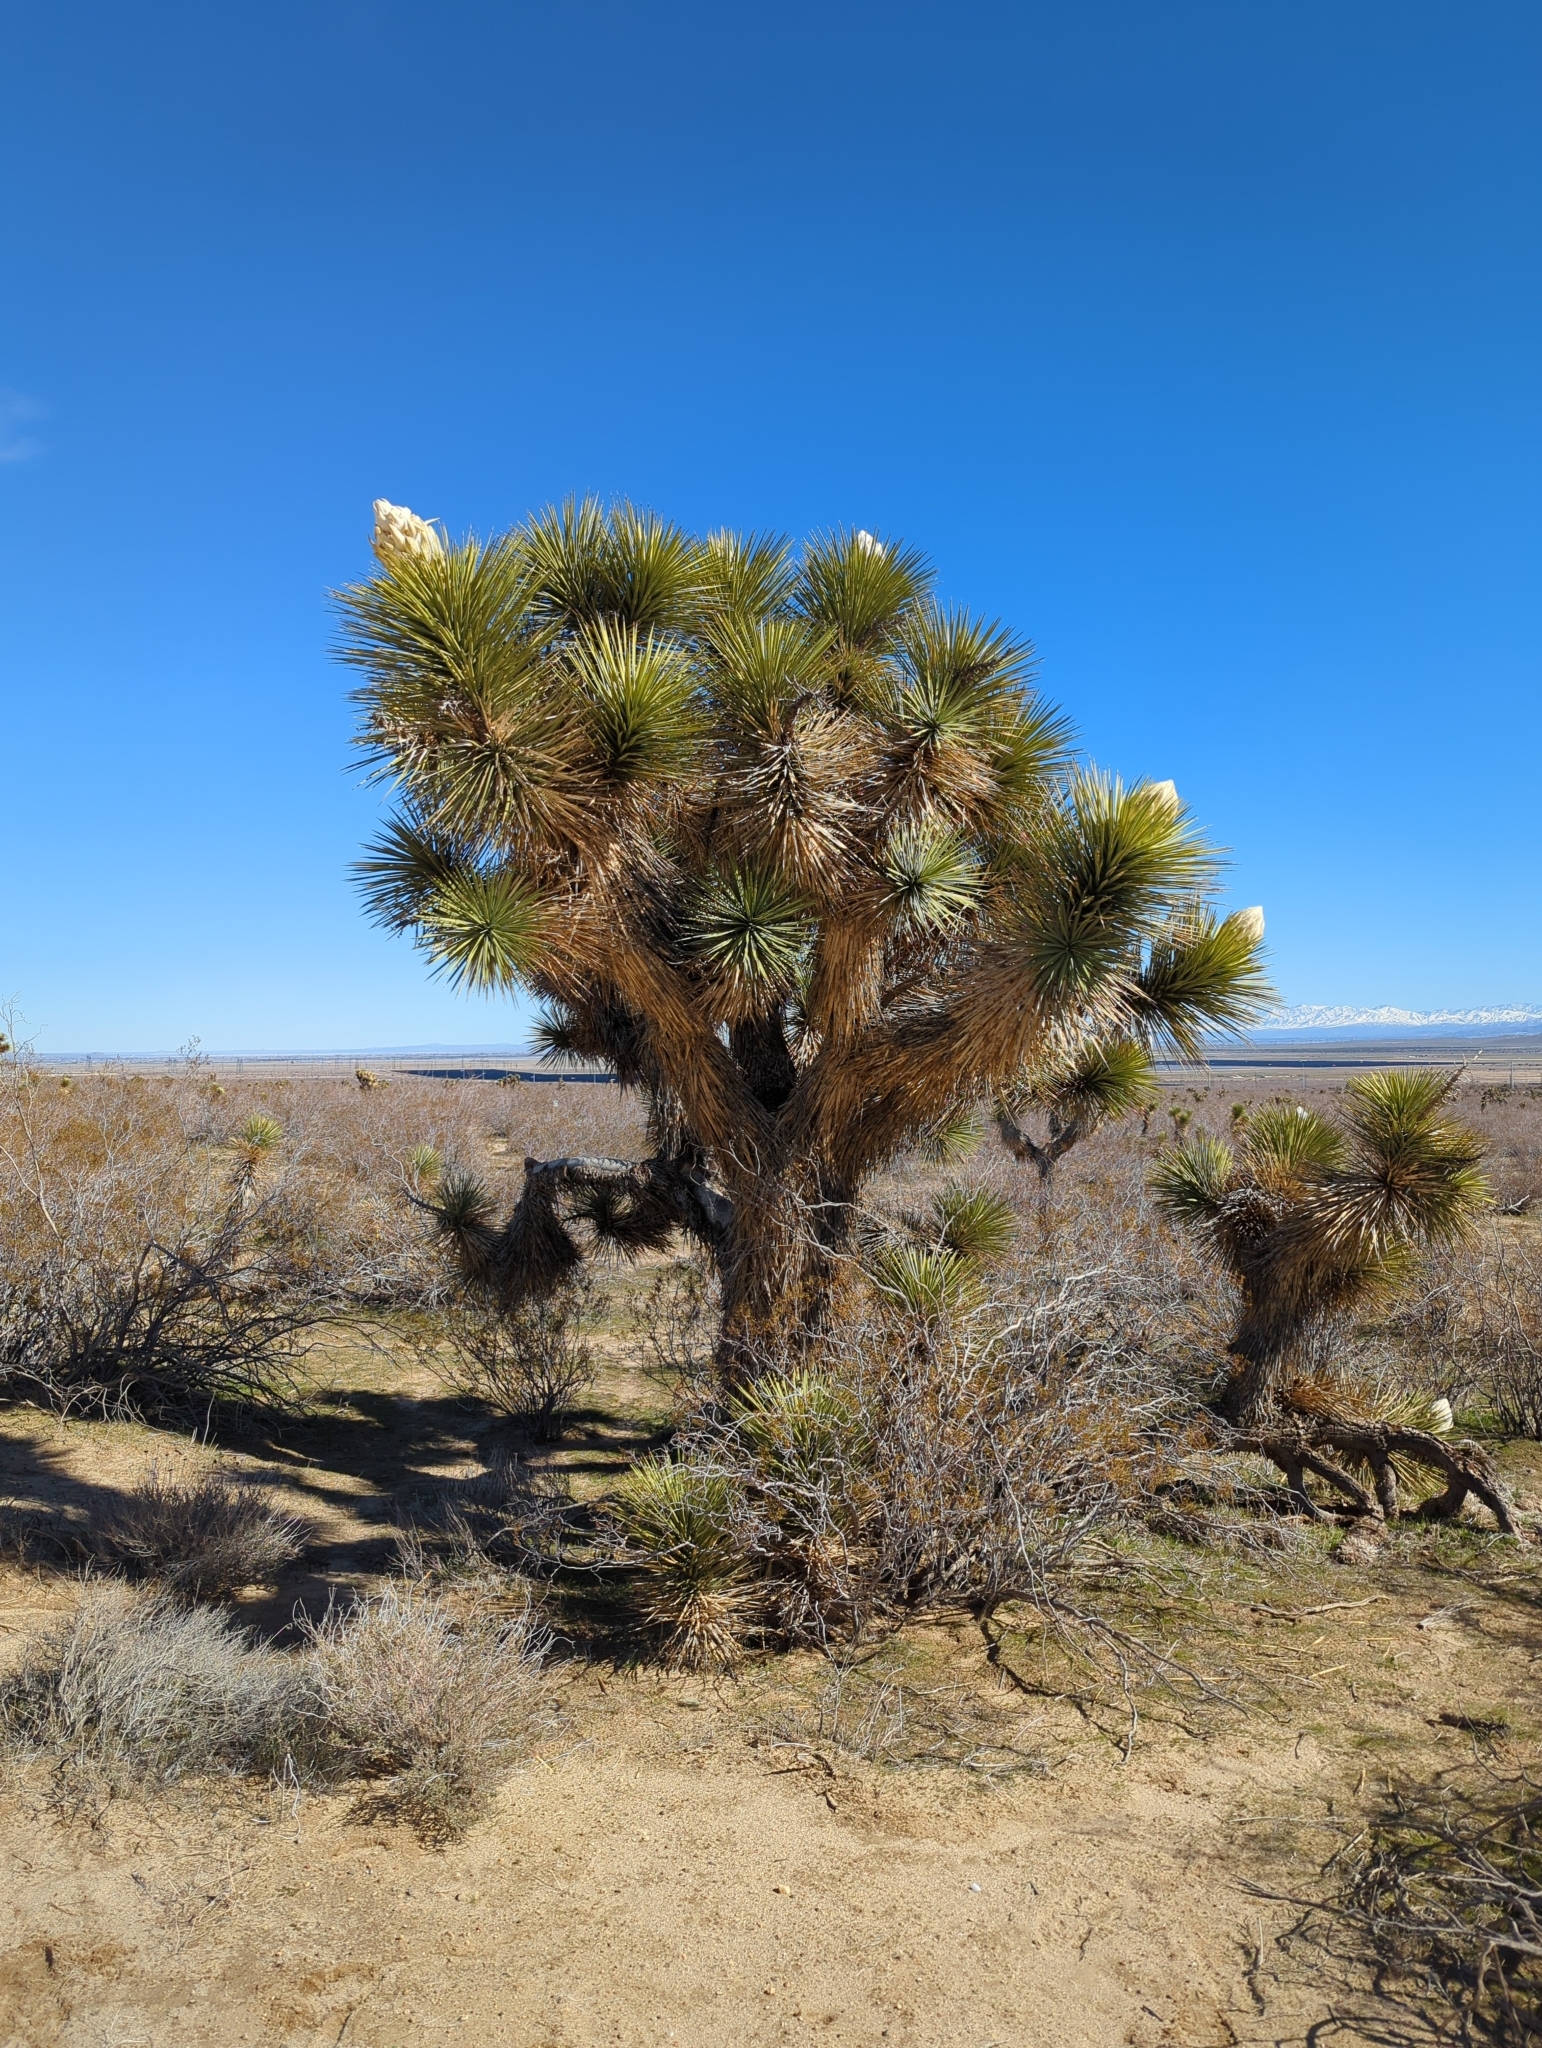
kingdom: Plantae
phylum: Tracheophyta
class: Liliopsida
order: Asparagales
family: Asparagaceae
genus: Yucca
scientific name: Yucca brevifolia
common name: Joshua tree
